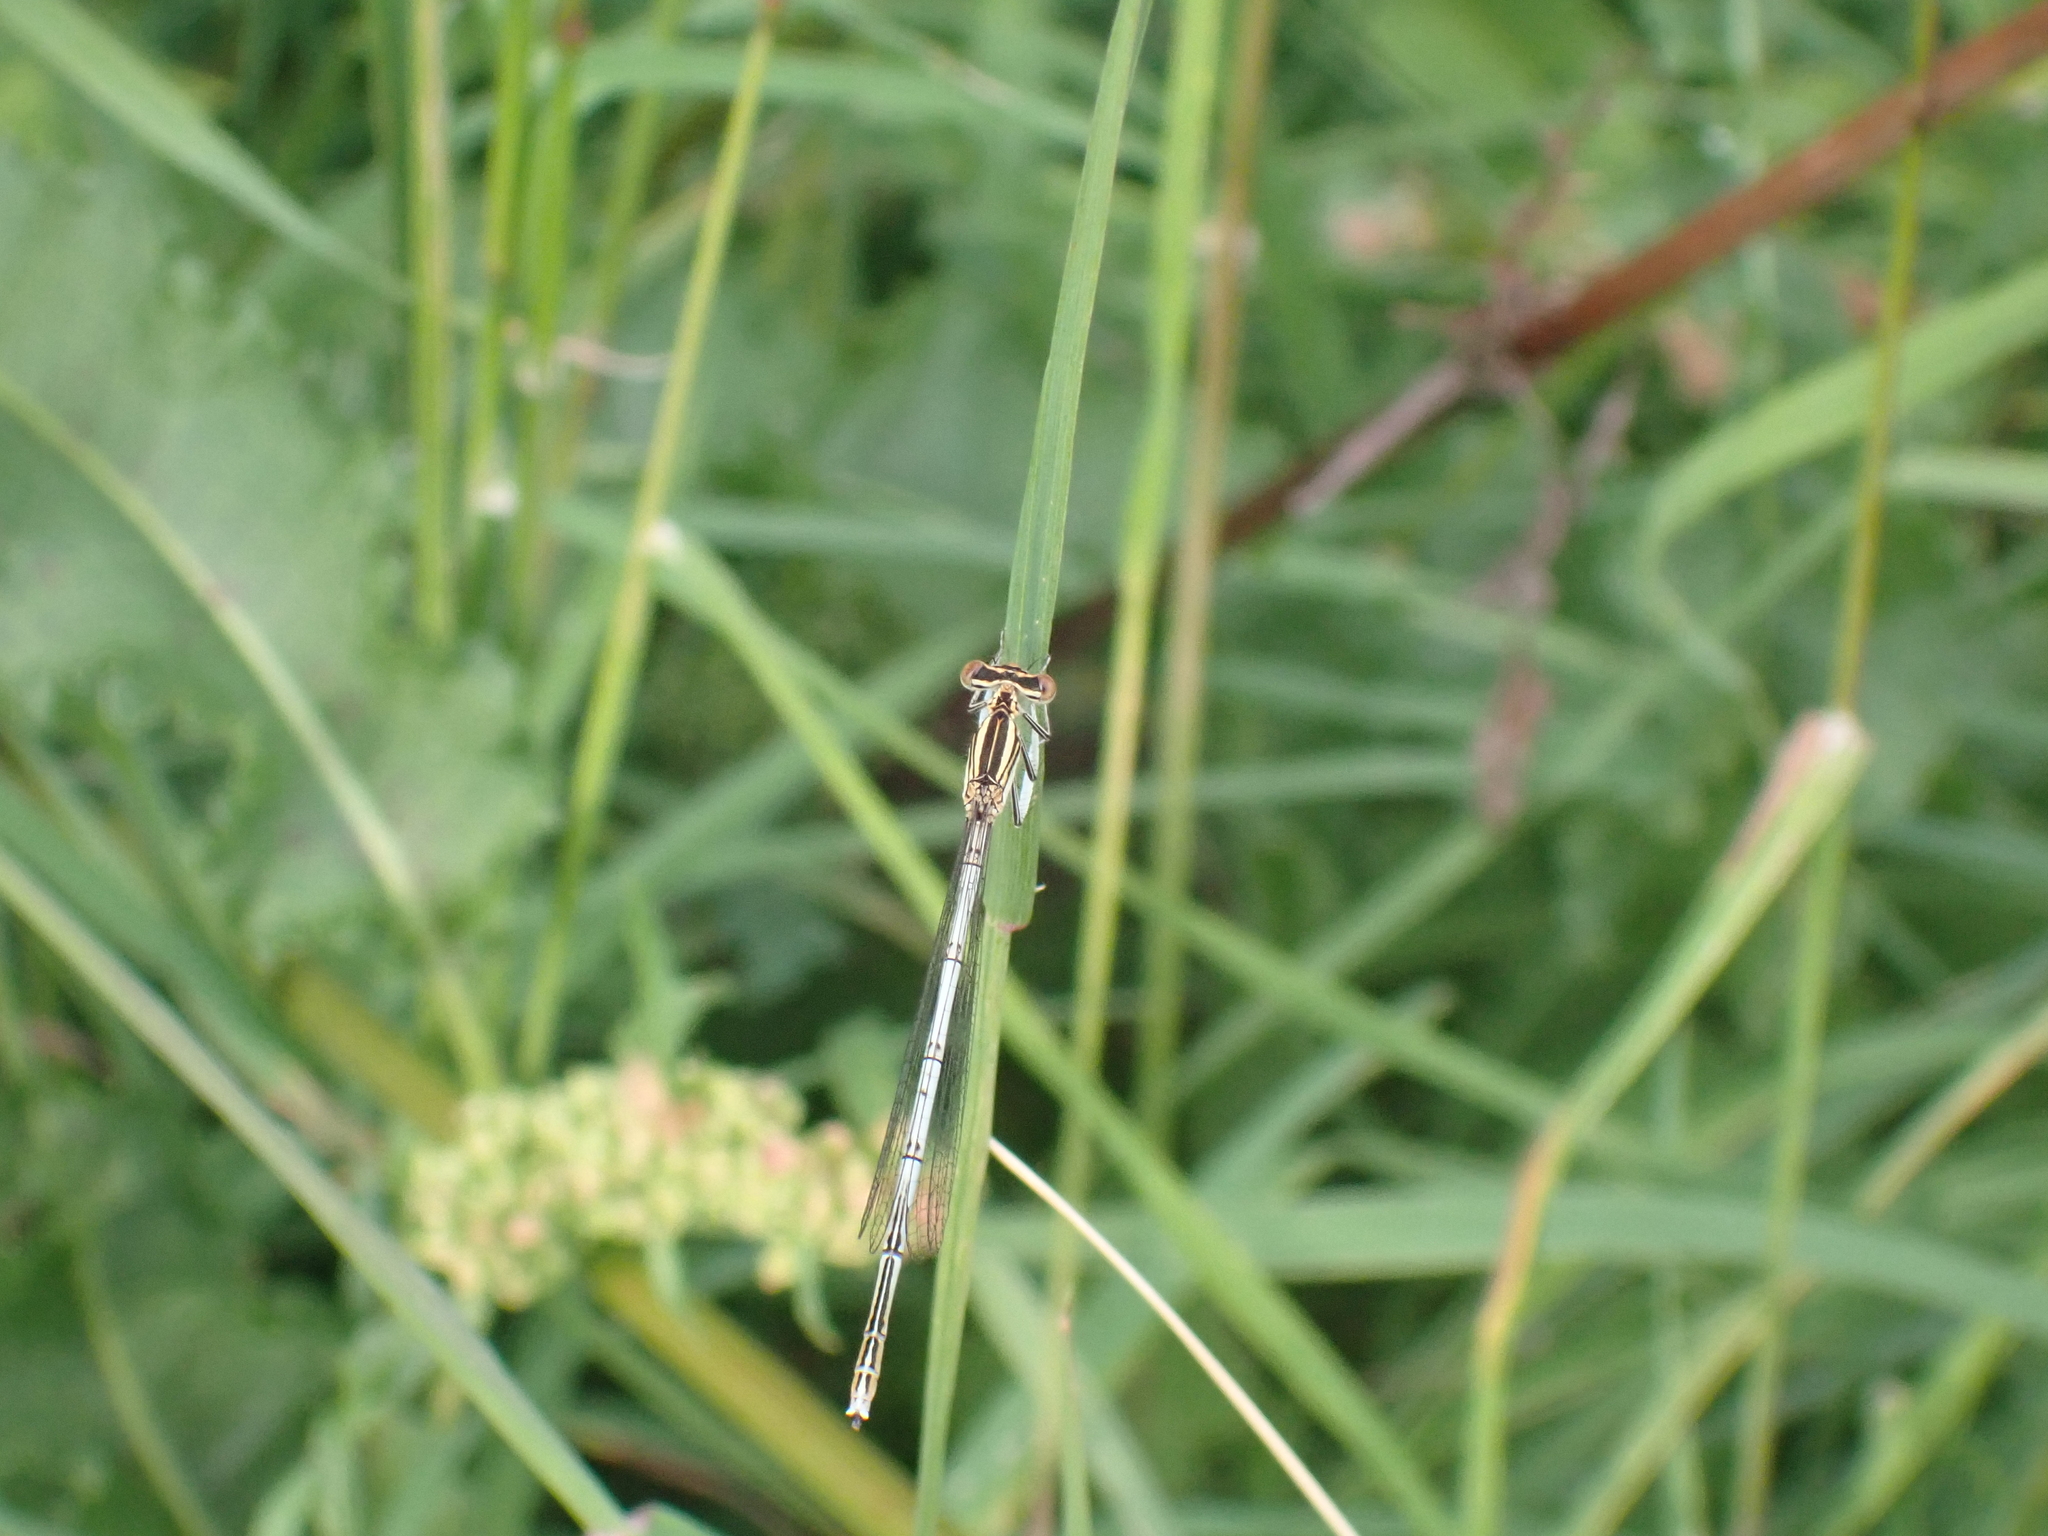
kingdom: Animalia
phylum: Arthropoda
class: Insecta
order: Odonata
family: Platycnemididae
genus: Platycnemis
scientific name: Platycnemis pennipes
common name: White-legged damselfly
